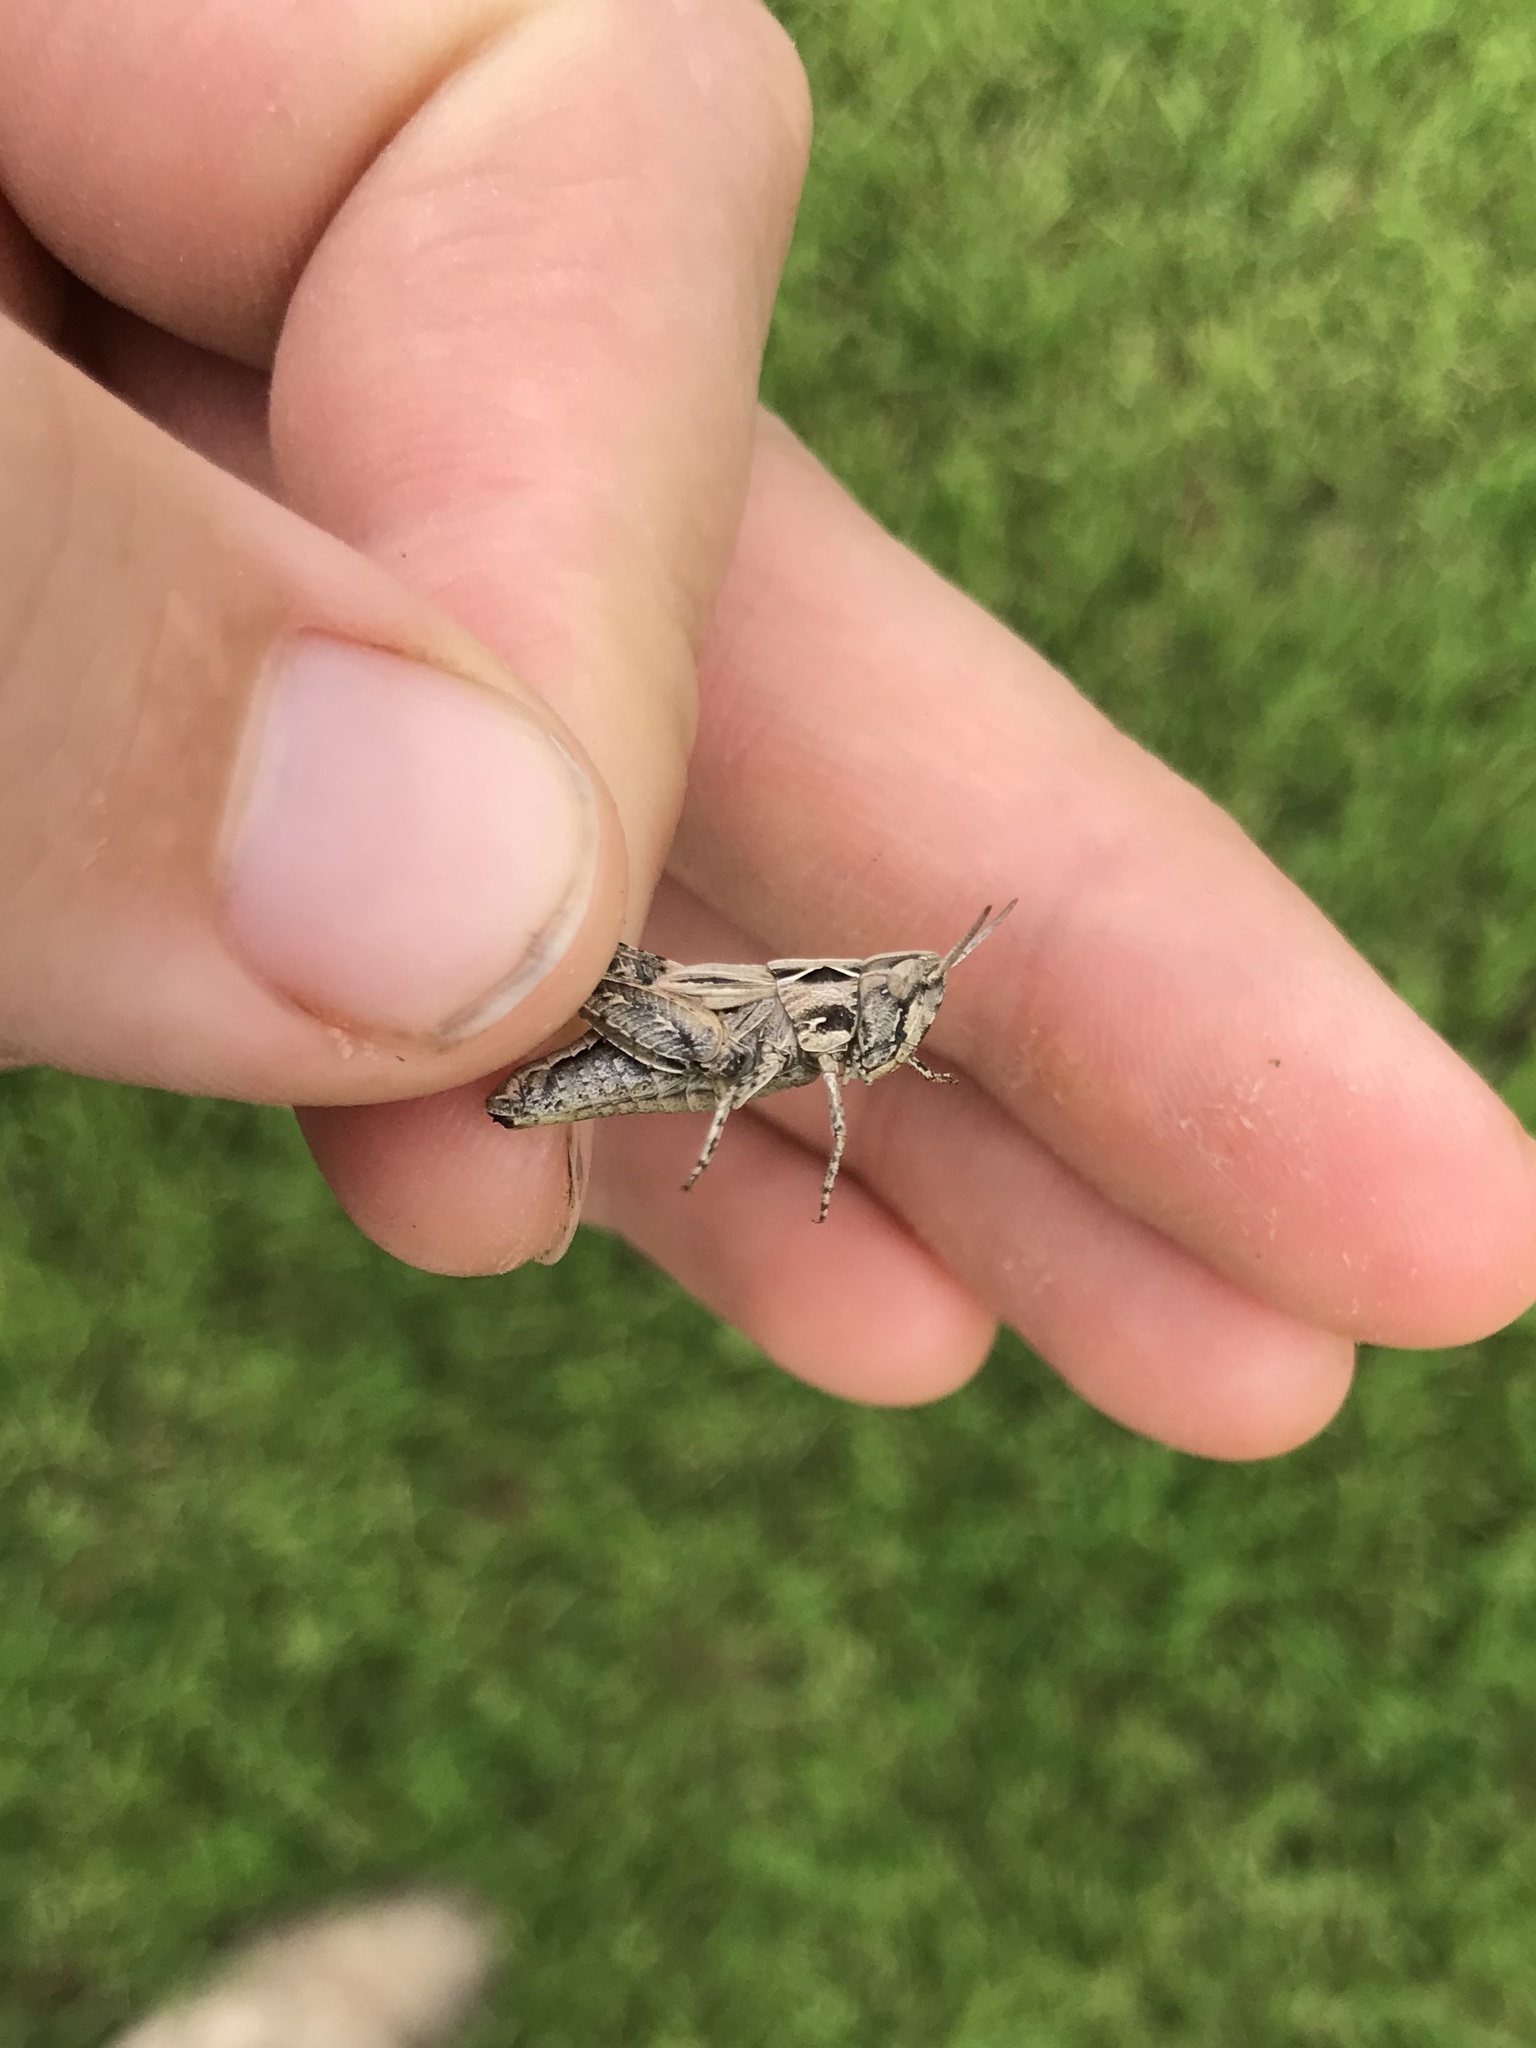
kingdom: Animalia
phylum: Arthropoda
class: Insecta
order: Orthoptera
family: Acrididae
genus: Eritettix
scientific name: Eritettix abortivus
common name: Slant-faced grasshopper
